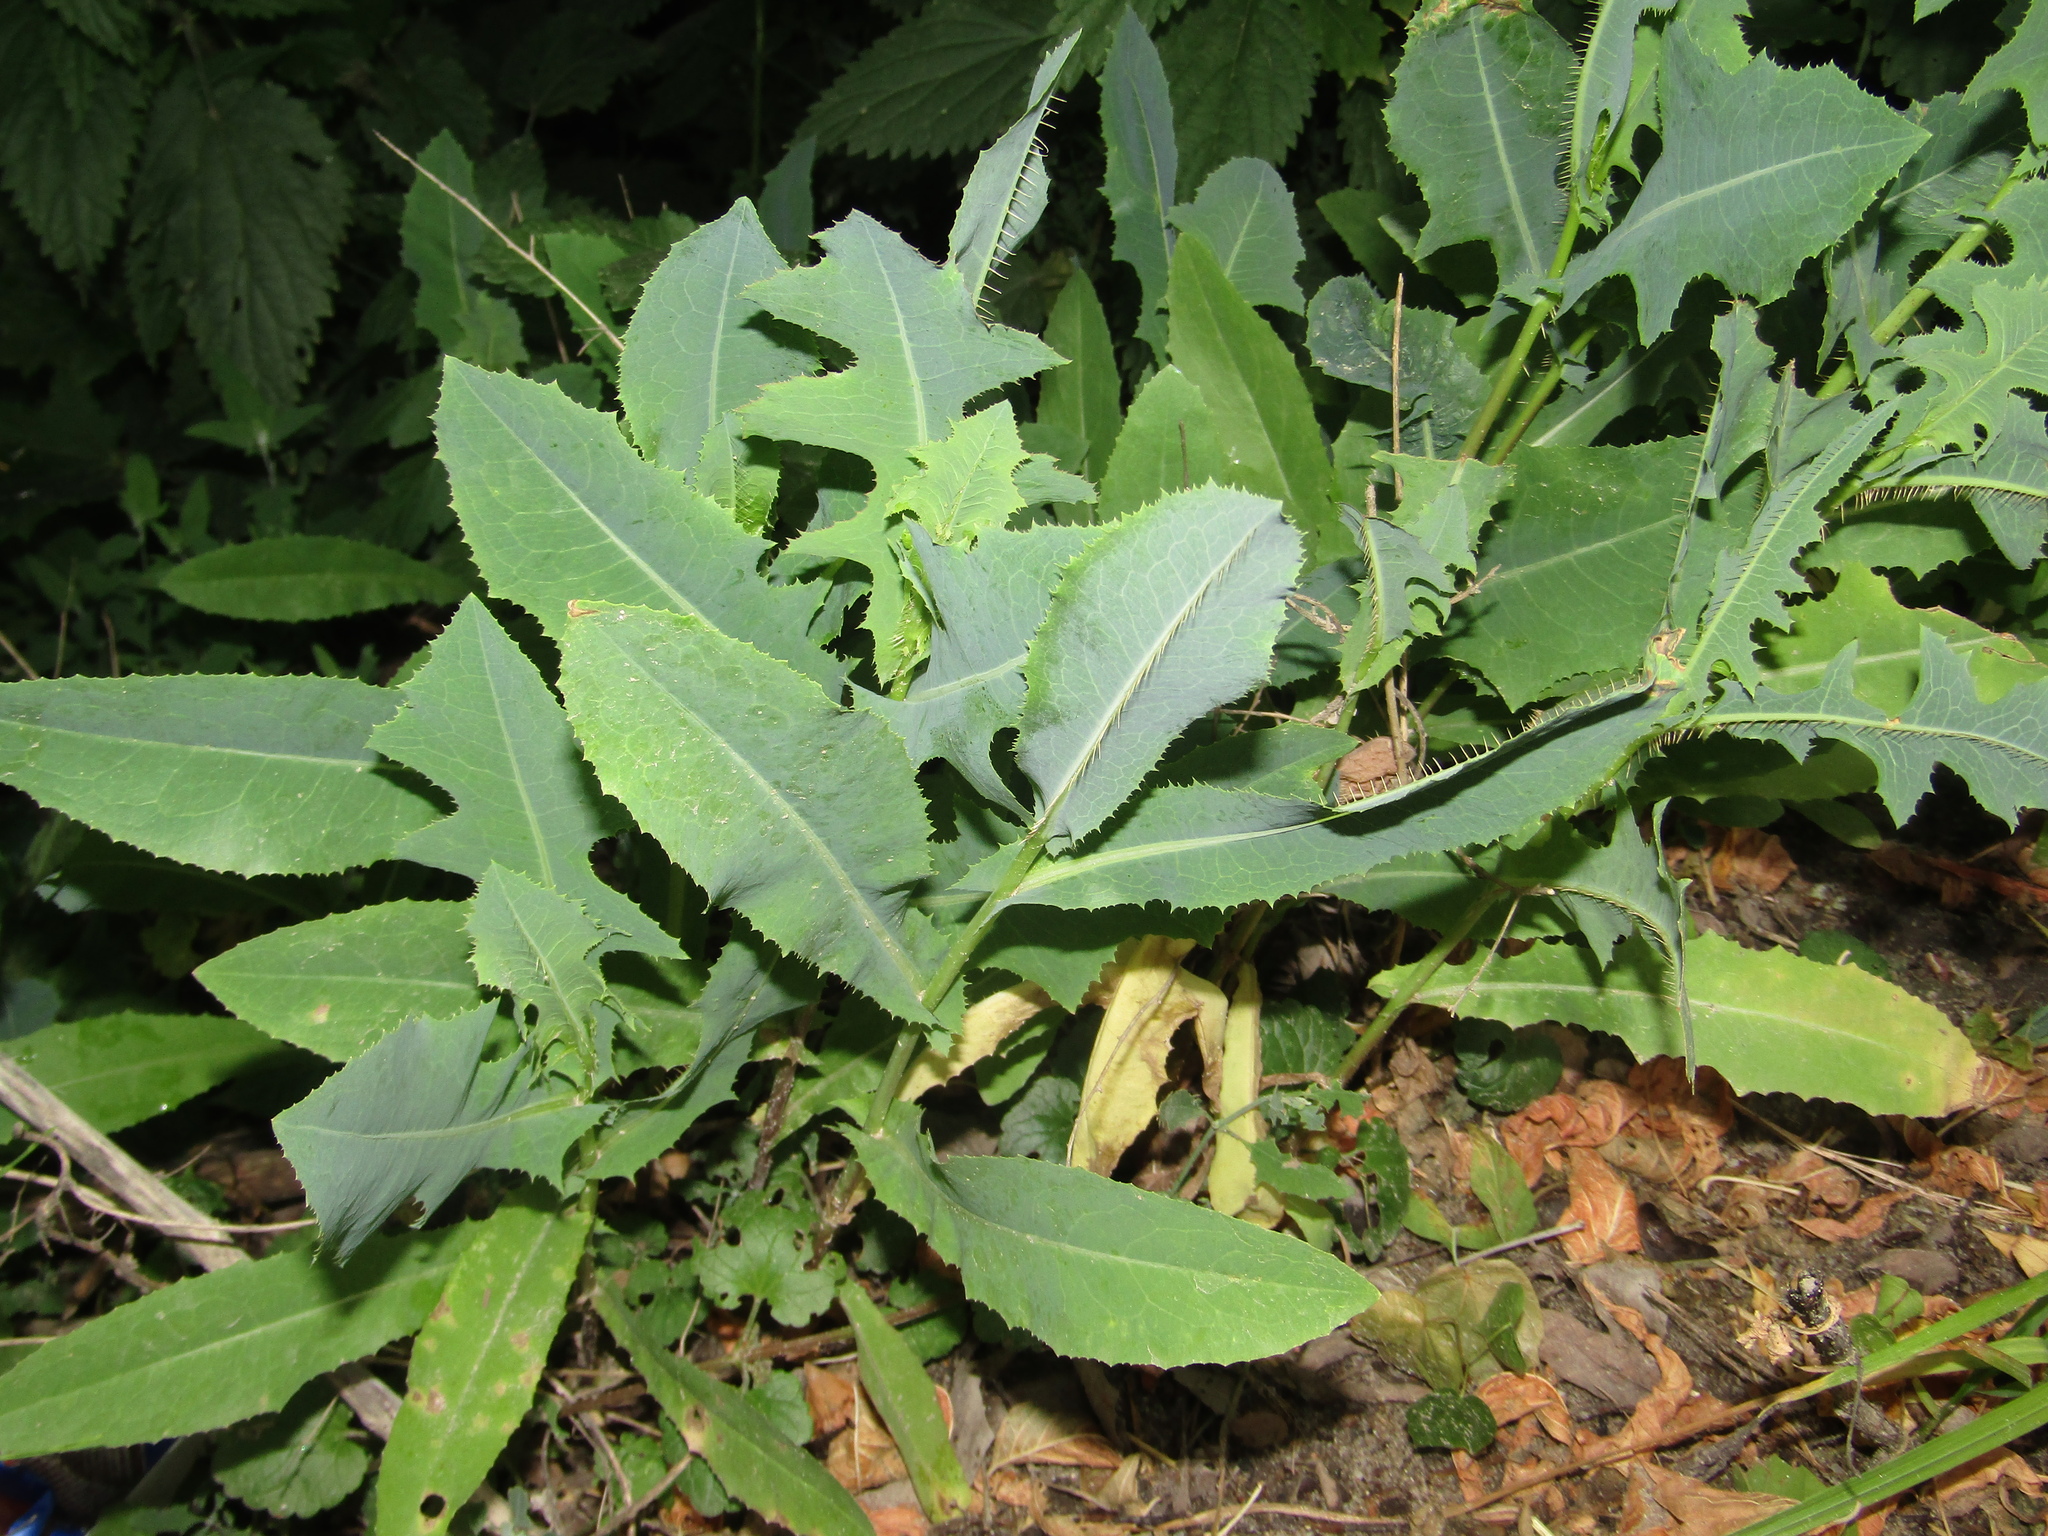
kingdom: Plantae
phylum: Tracheophyta
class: Magnoliopsida
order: Asterales
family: Asteraceae
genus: Lactuca
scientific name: Lactuca serriola
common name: Prickly lettuce
